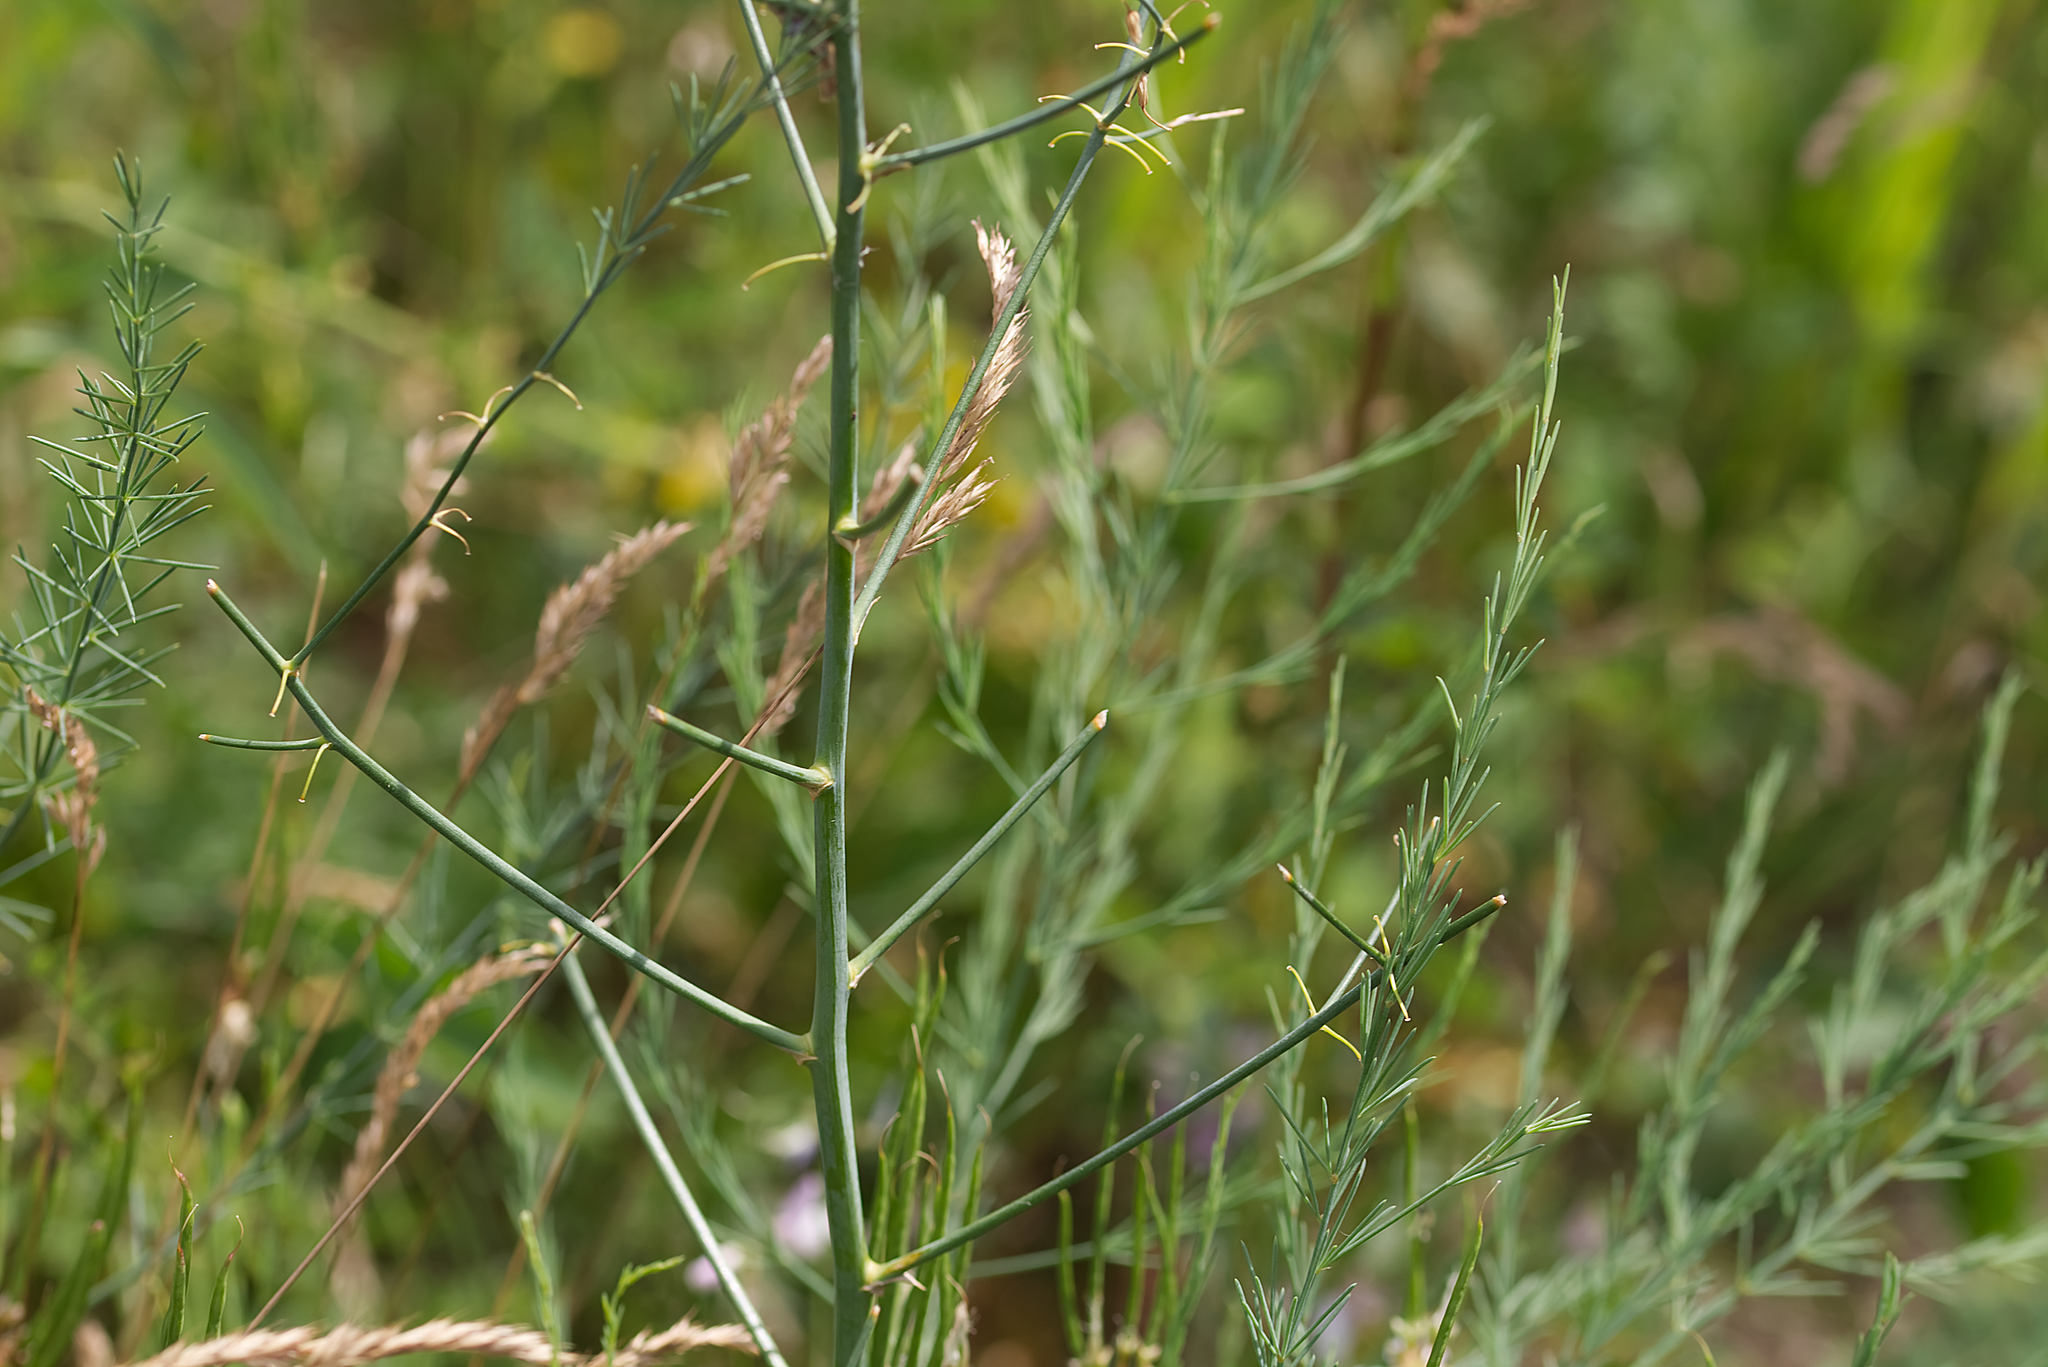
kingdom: Plantae
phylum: Tracheophyta
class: Liliopsida
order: Asparagales
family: Asparagaceae
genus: Asparagus
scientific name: Asparagus officinalis
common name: Garden asparagus
